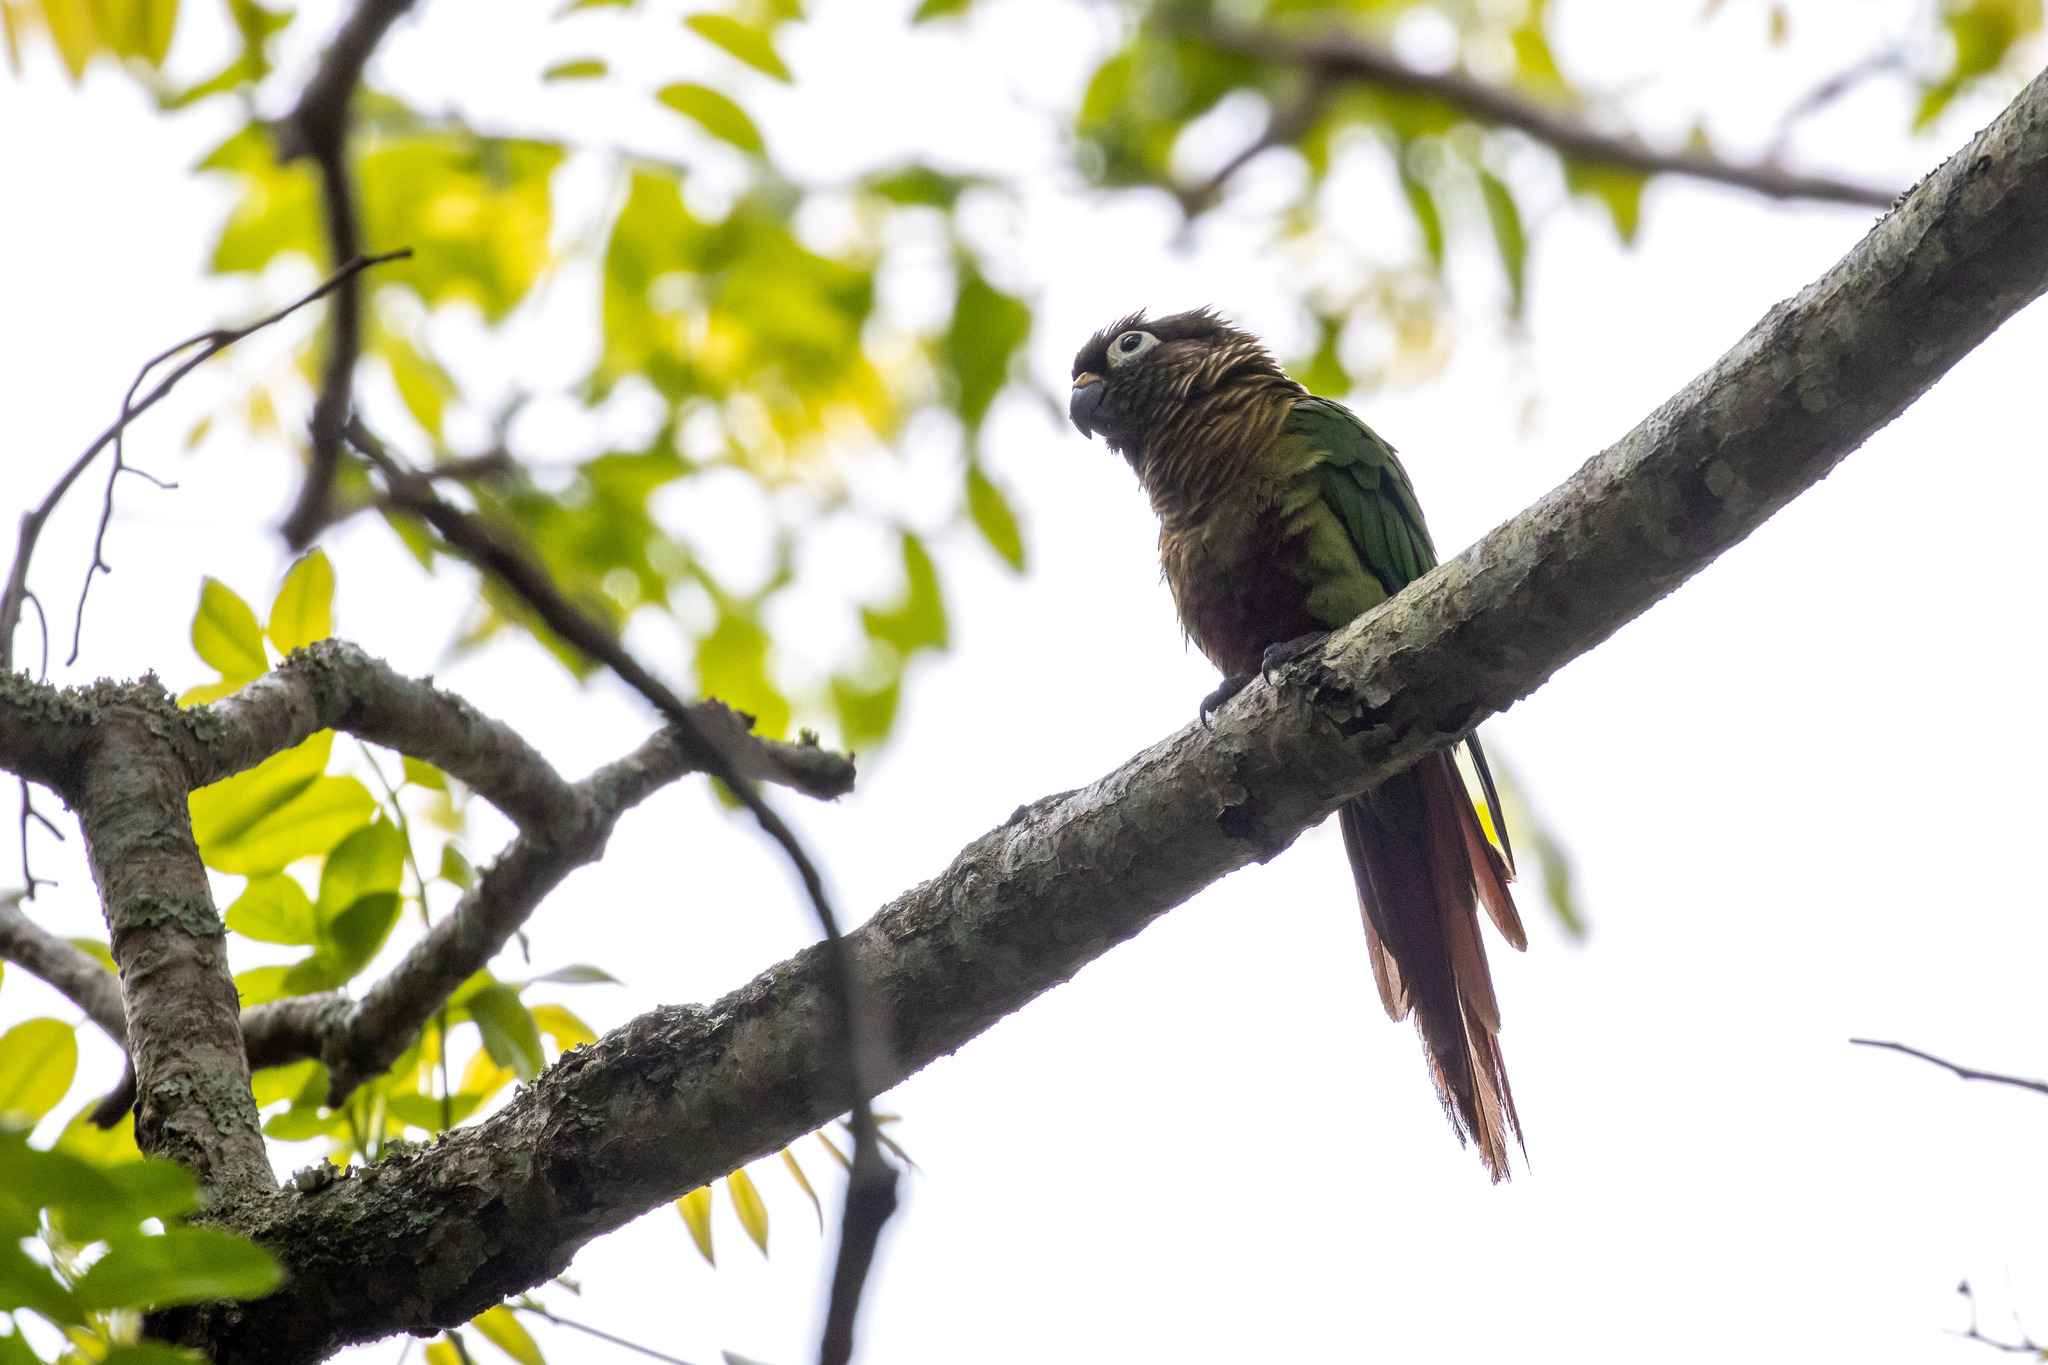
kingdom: Animalia
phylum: Chordata
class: Aves
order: Psittaciformes
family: Psittacidae
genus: Pyrrhura
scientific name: Pyrrhura frontalis
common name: Maroon-bellied parakeet
